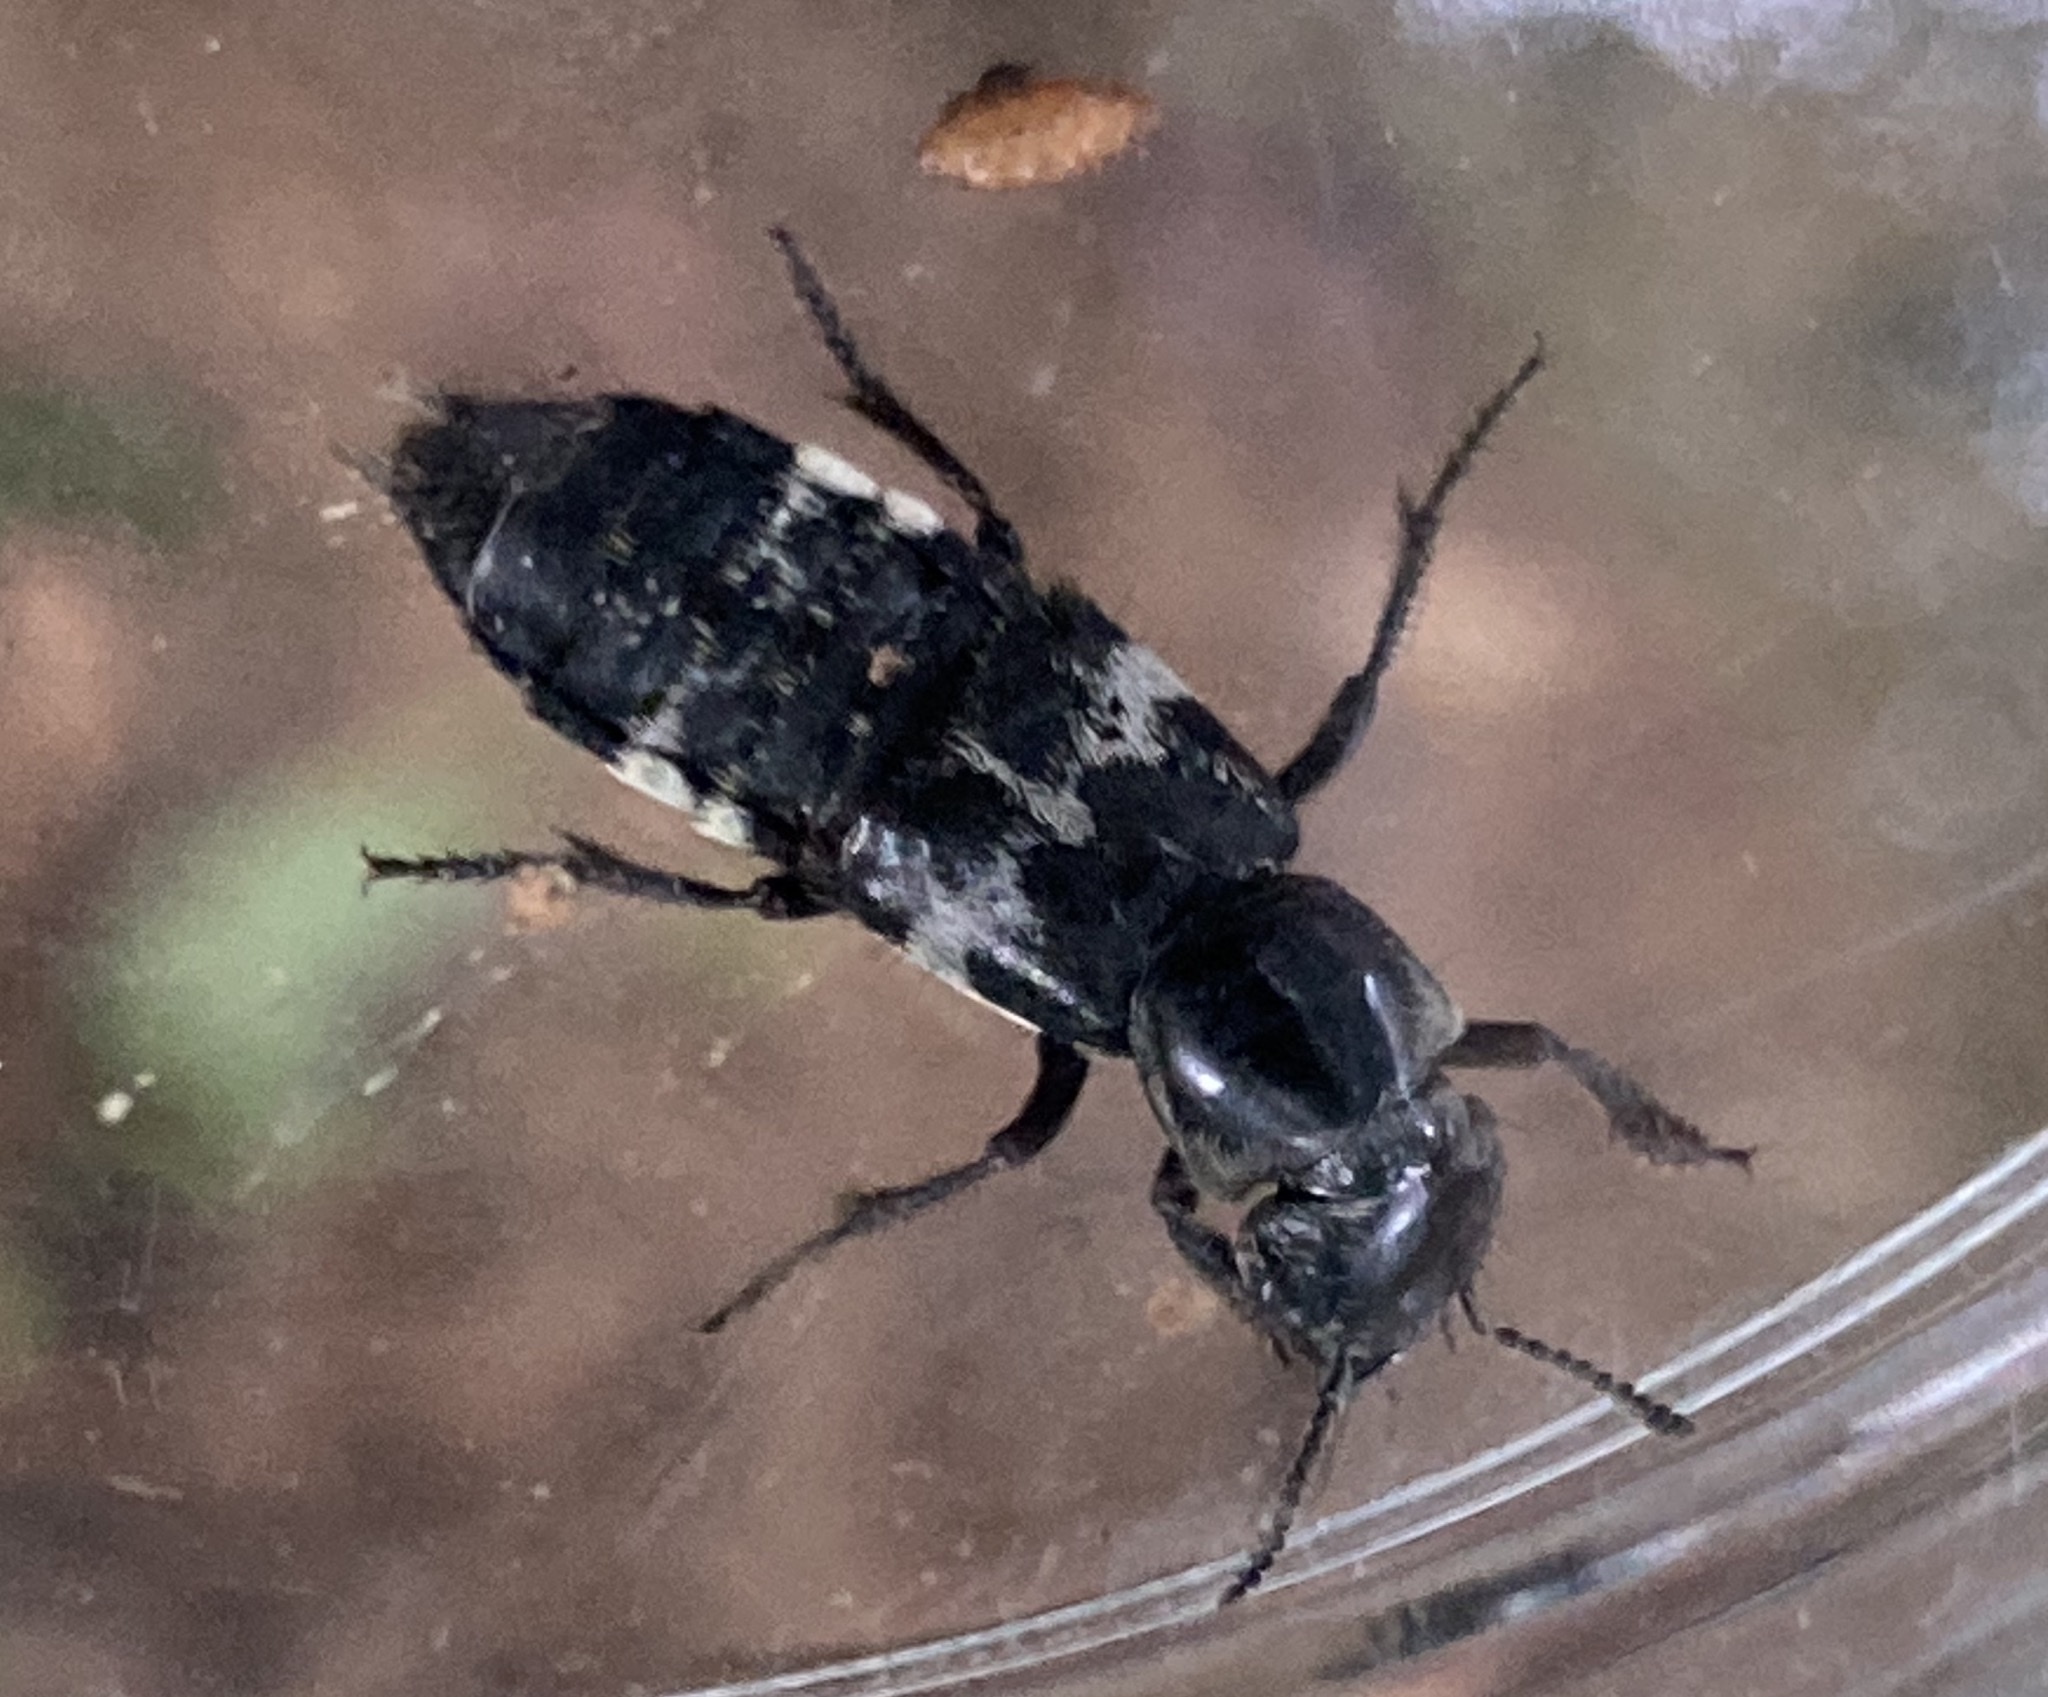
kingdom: Animalia
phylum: Arthropoda
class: Insecta
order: Coleoptera
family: Staphylinidae
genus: Creophilus
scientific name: Creophilus maxillosus
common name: Hairy rove beetle
